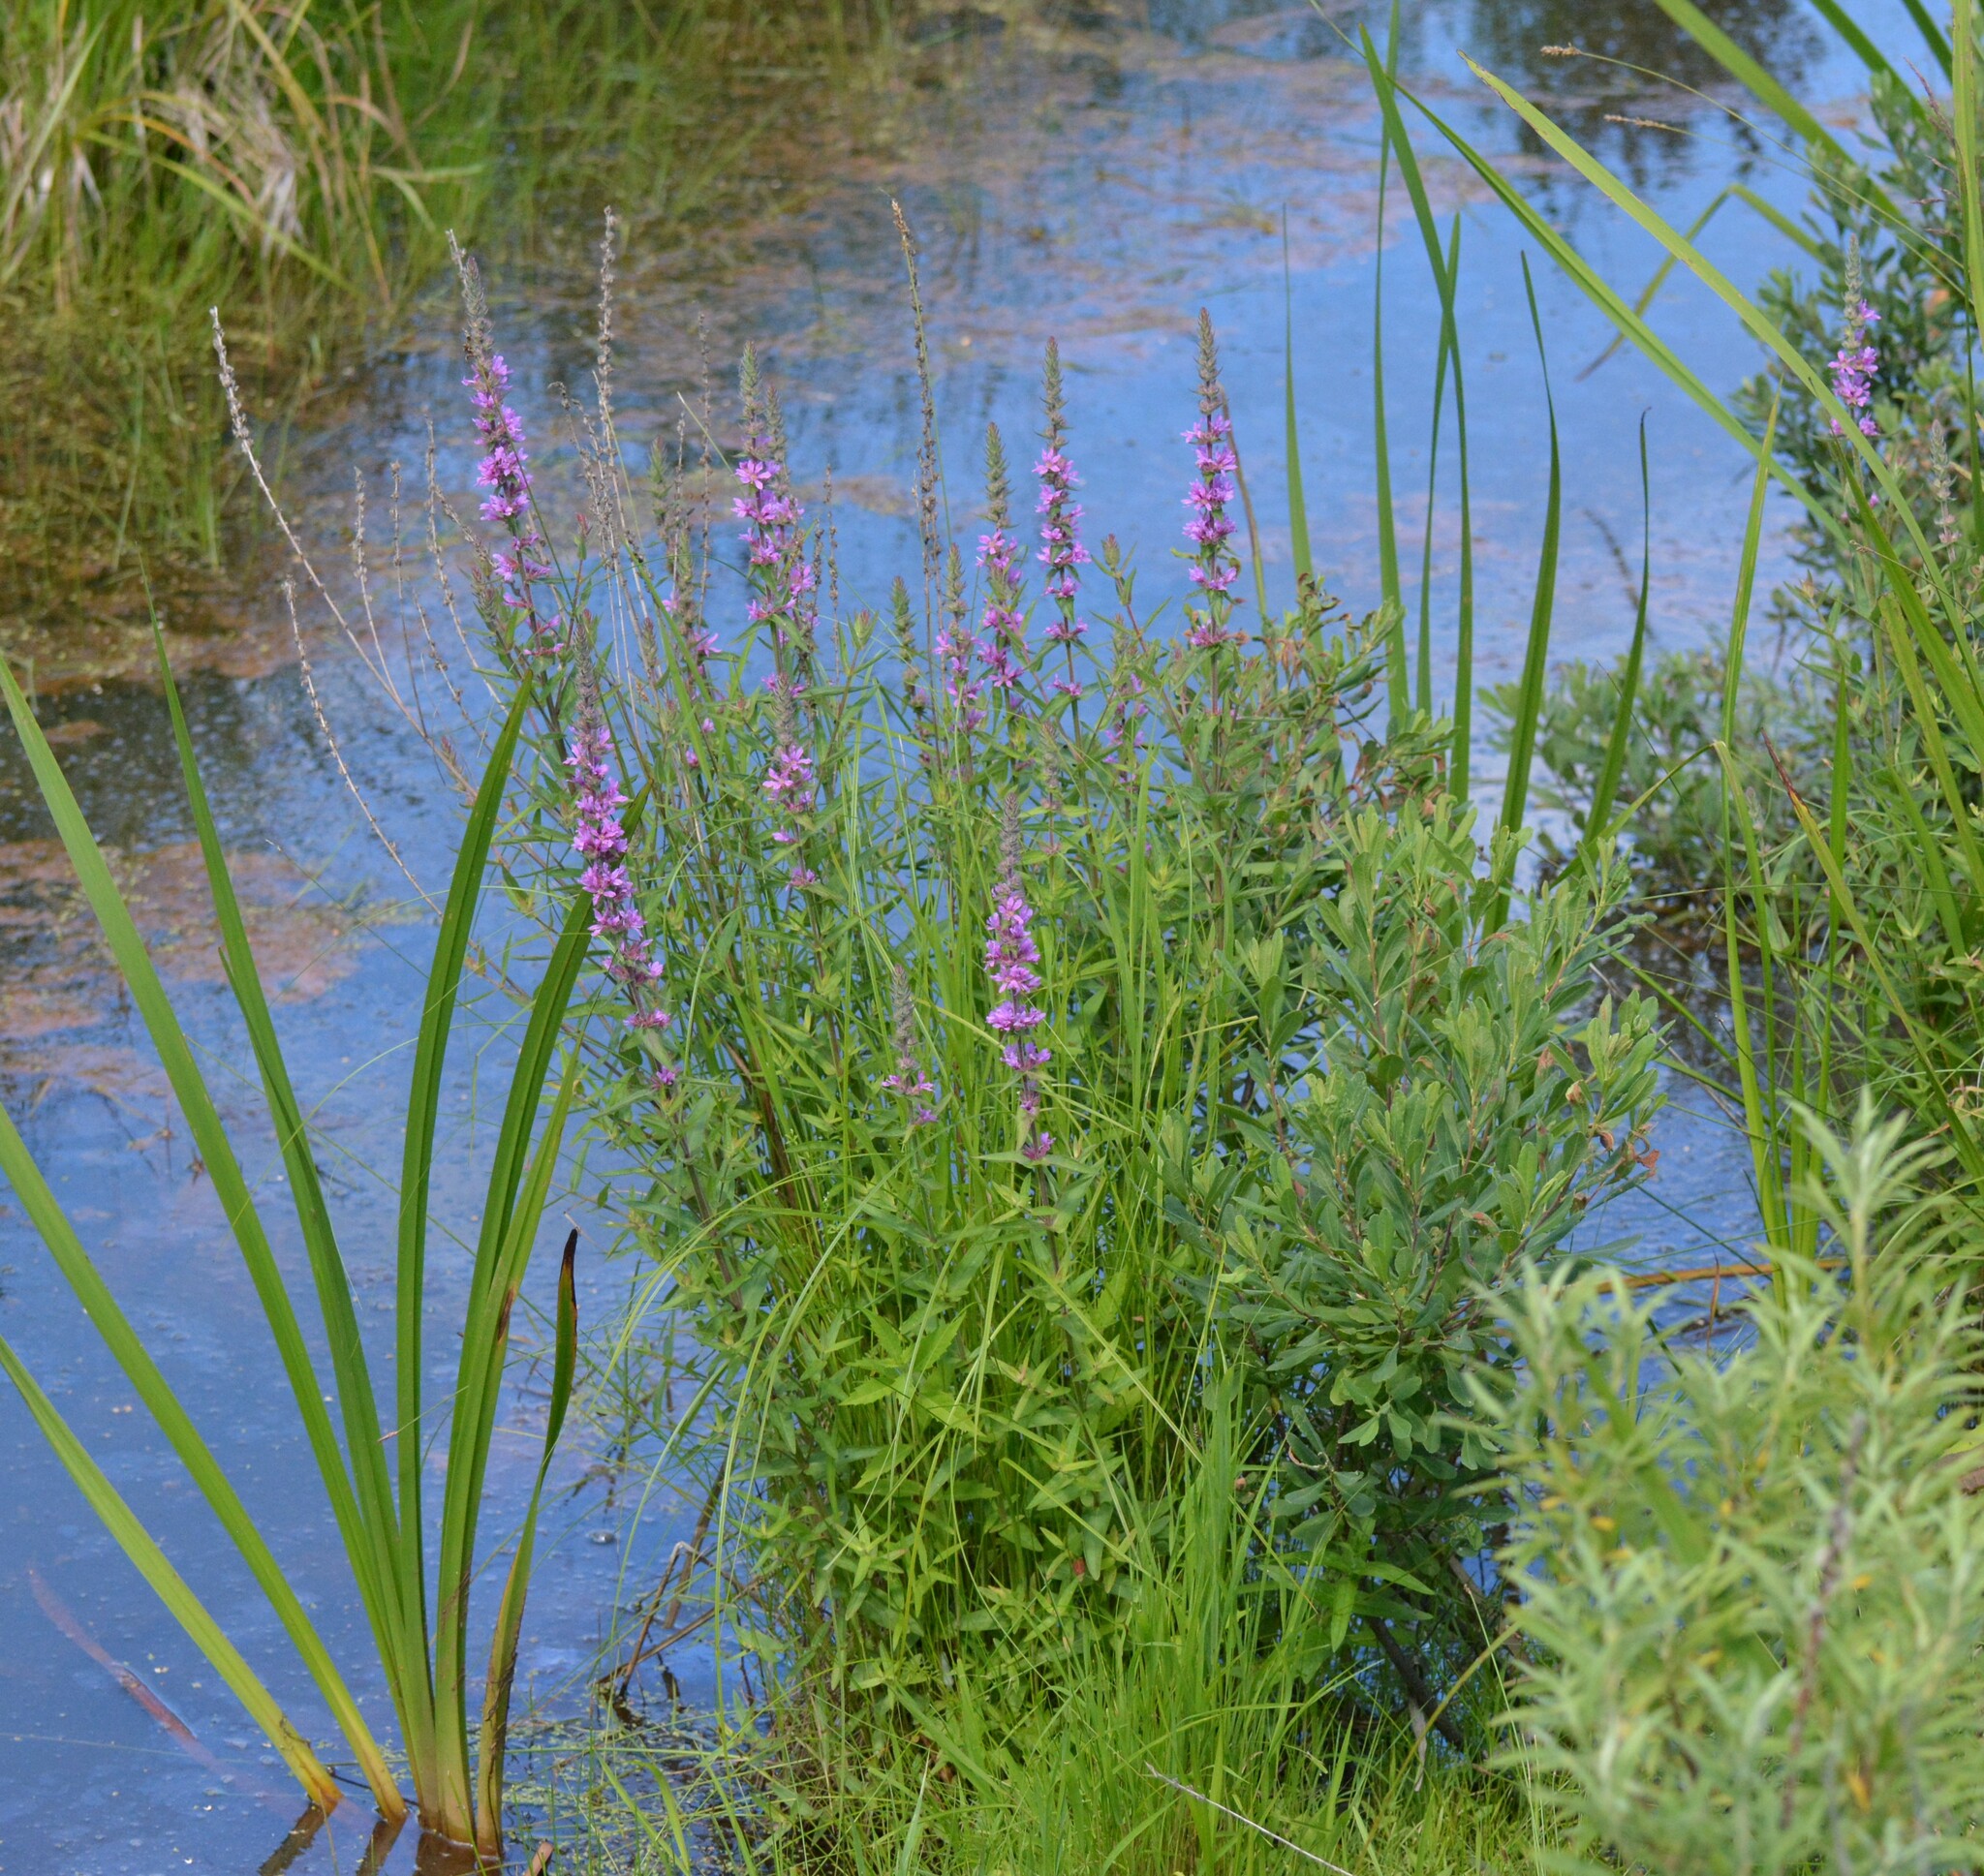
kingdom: Plantae
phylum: Tracheophyta
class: Magnoliopsida
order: Myrtales
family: Lythraceae
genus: Lythrum
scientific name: Lythrum salicaria
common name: Purple loosestrife
